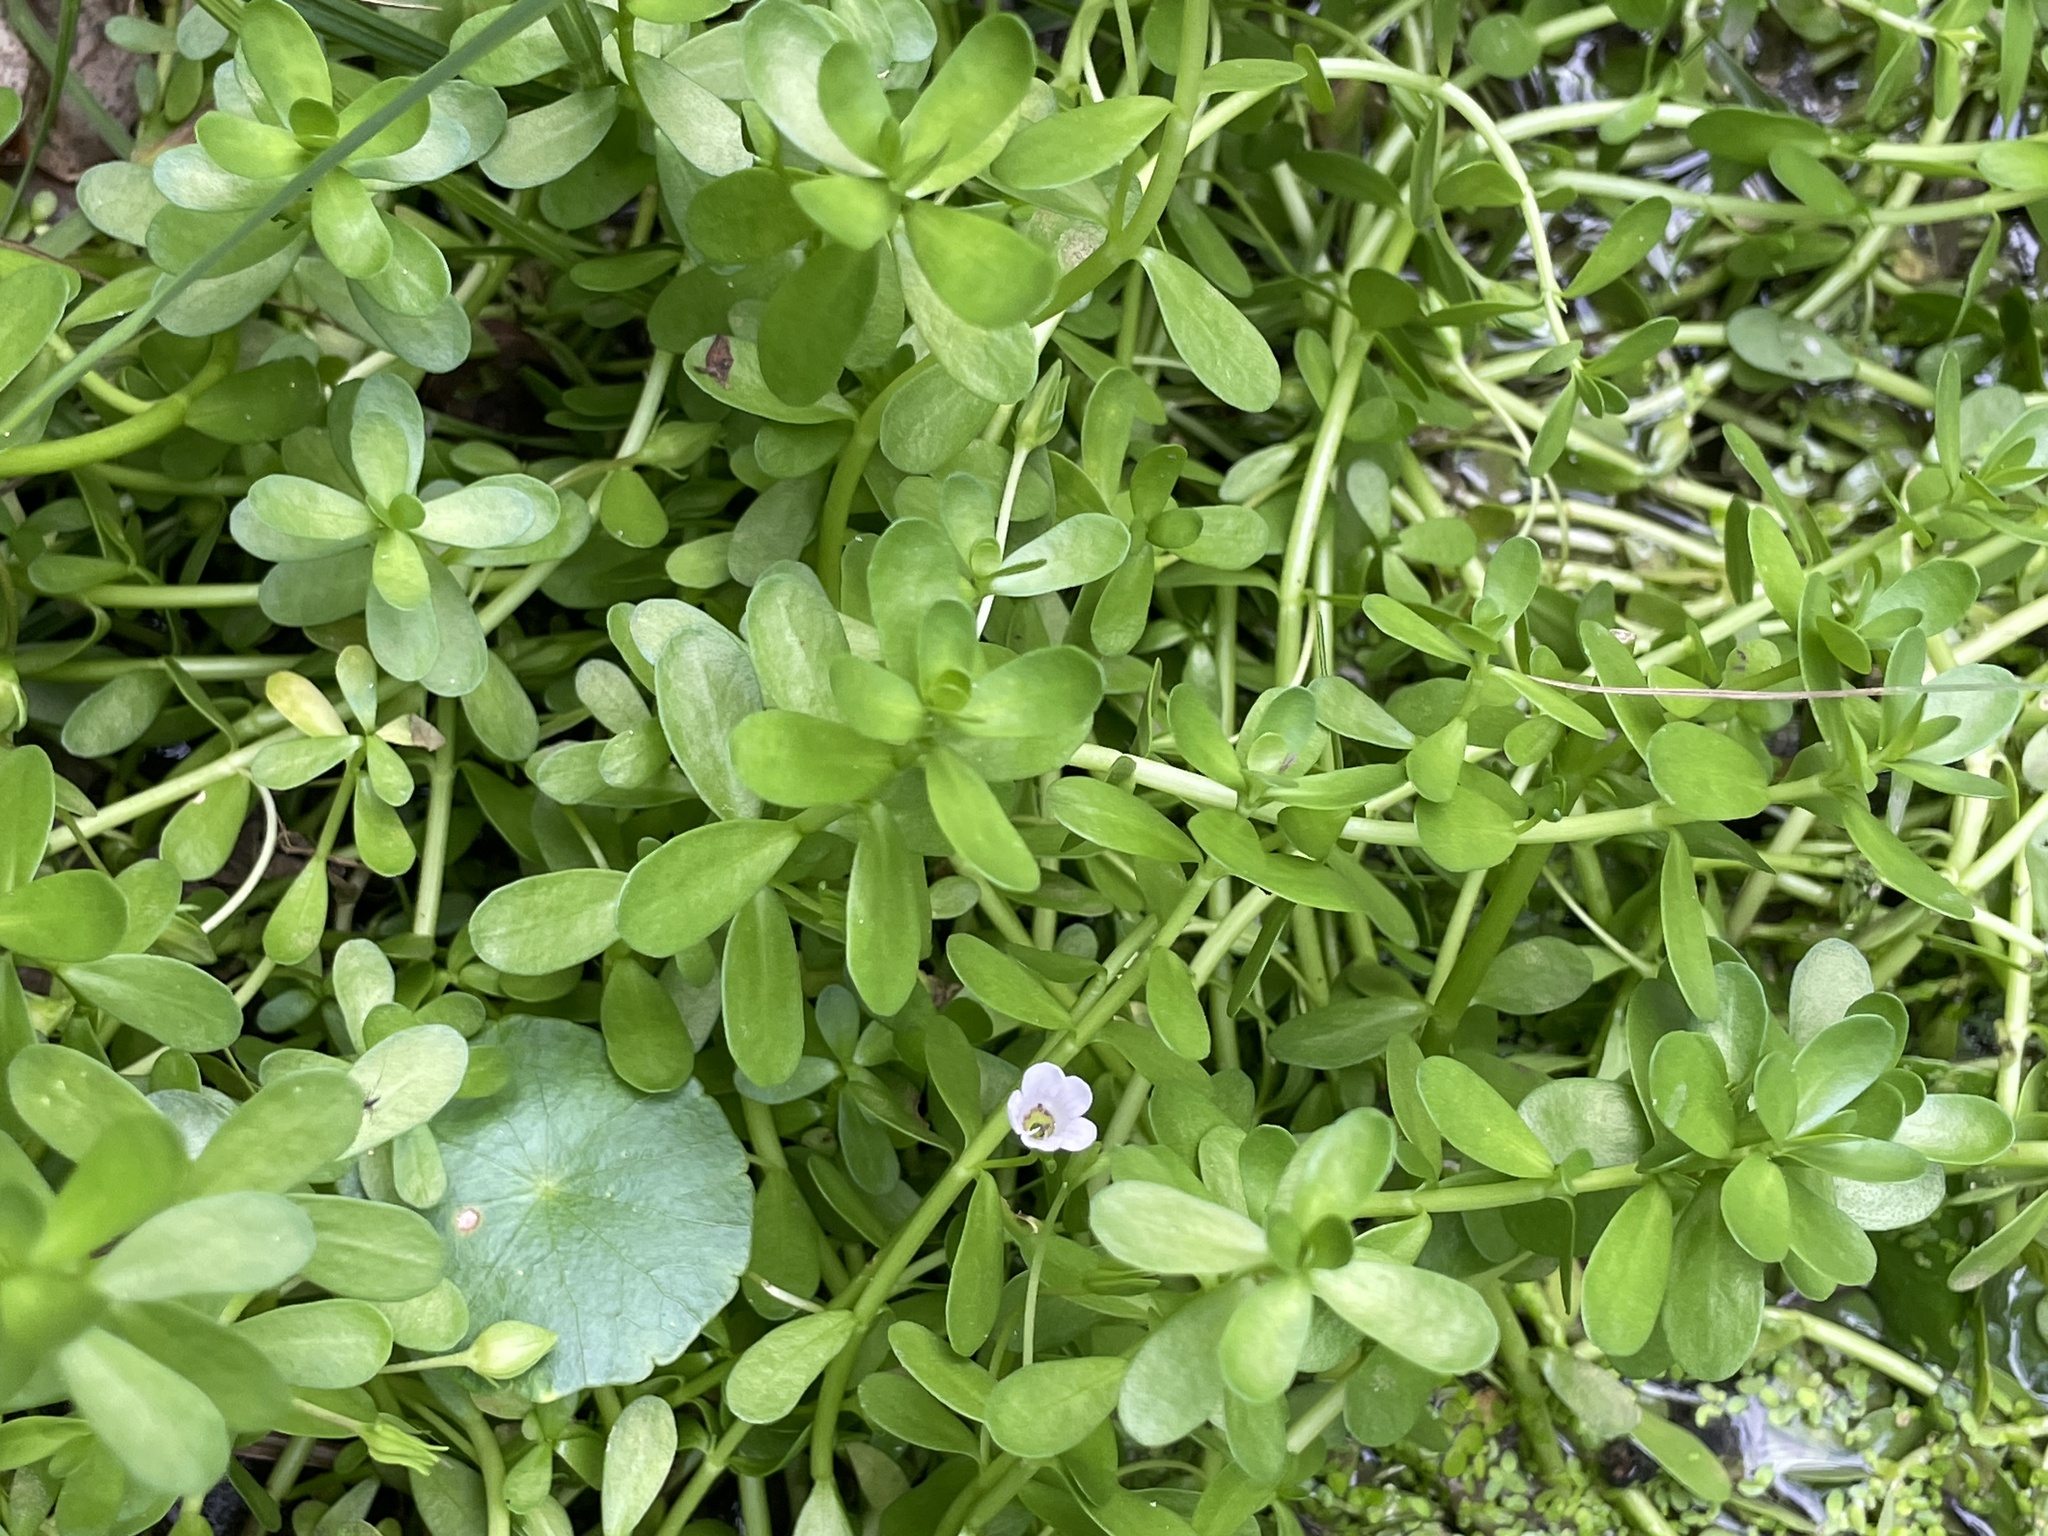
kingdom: Plantae
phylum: Tracheophyta
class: Magnoliopsida
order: Lamiales
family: Plantaginaceae
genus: Bacopa
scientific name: Bacopa monnieri
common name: Indian-pennywort
